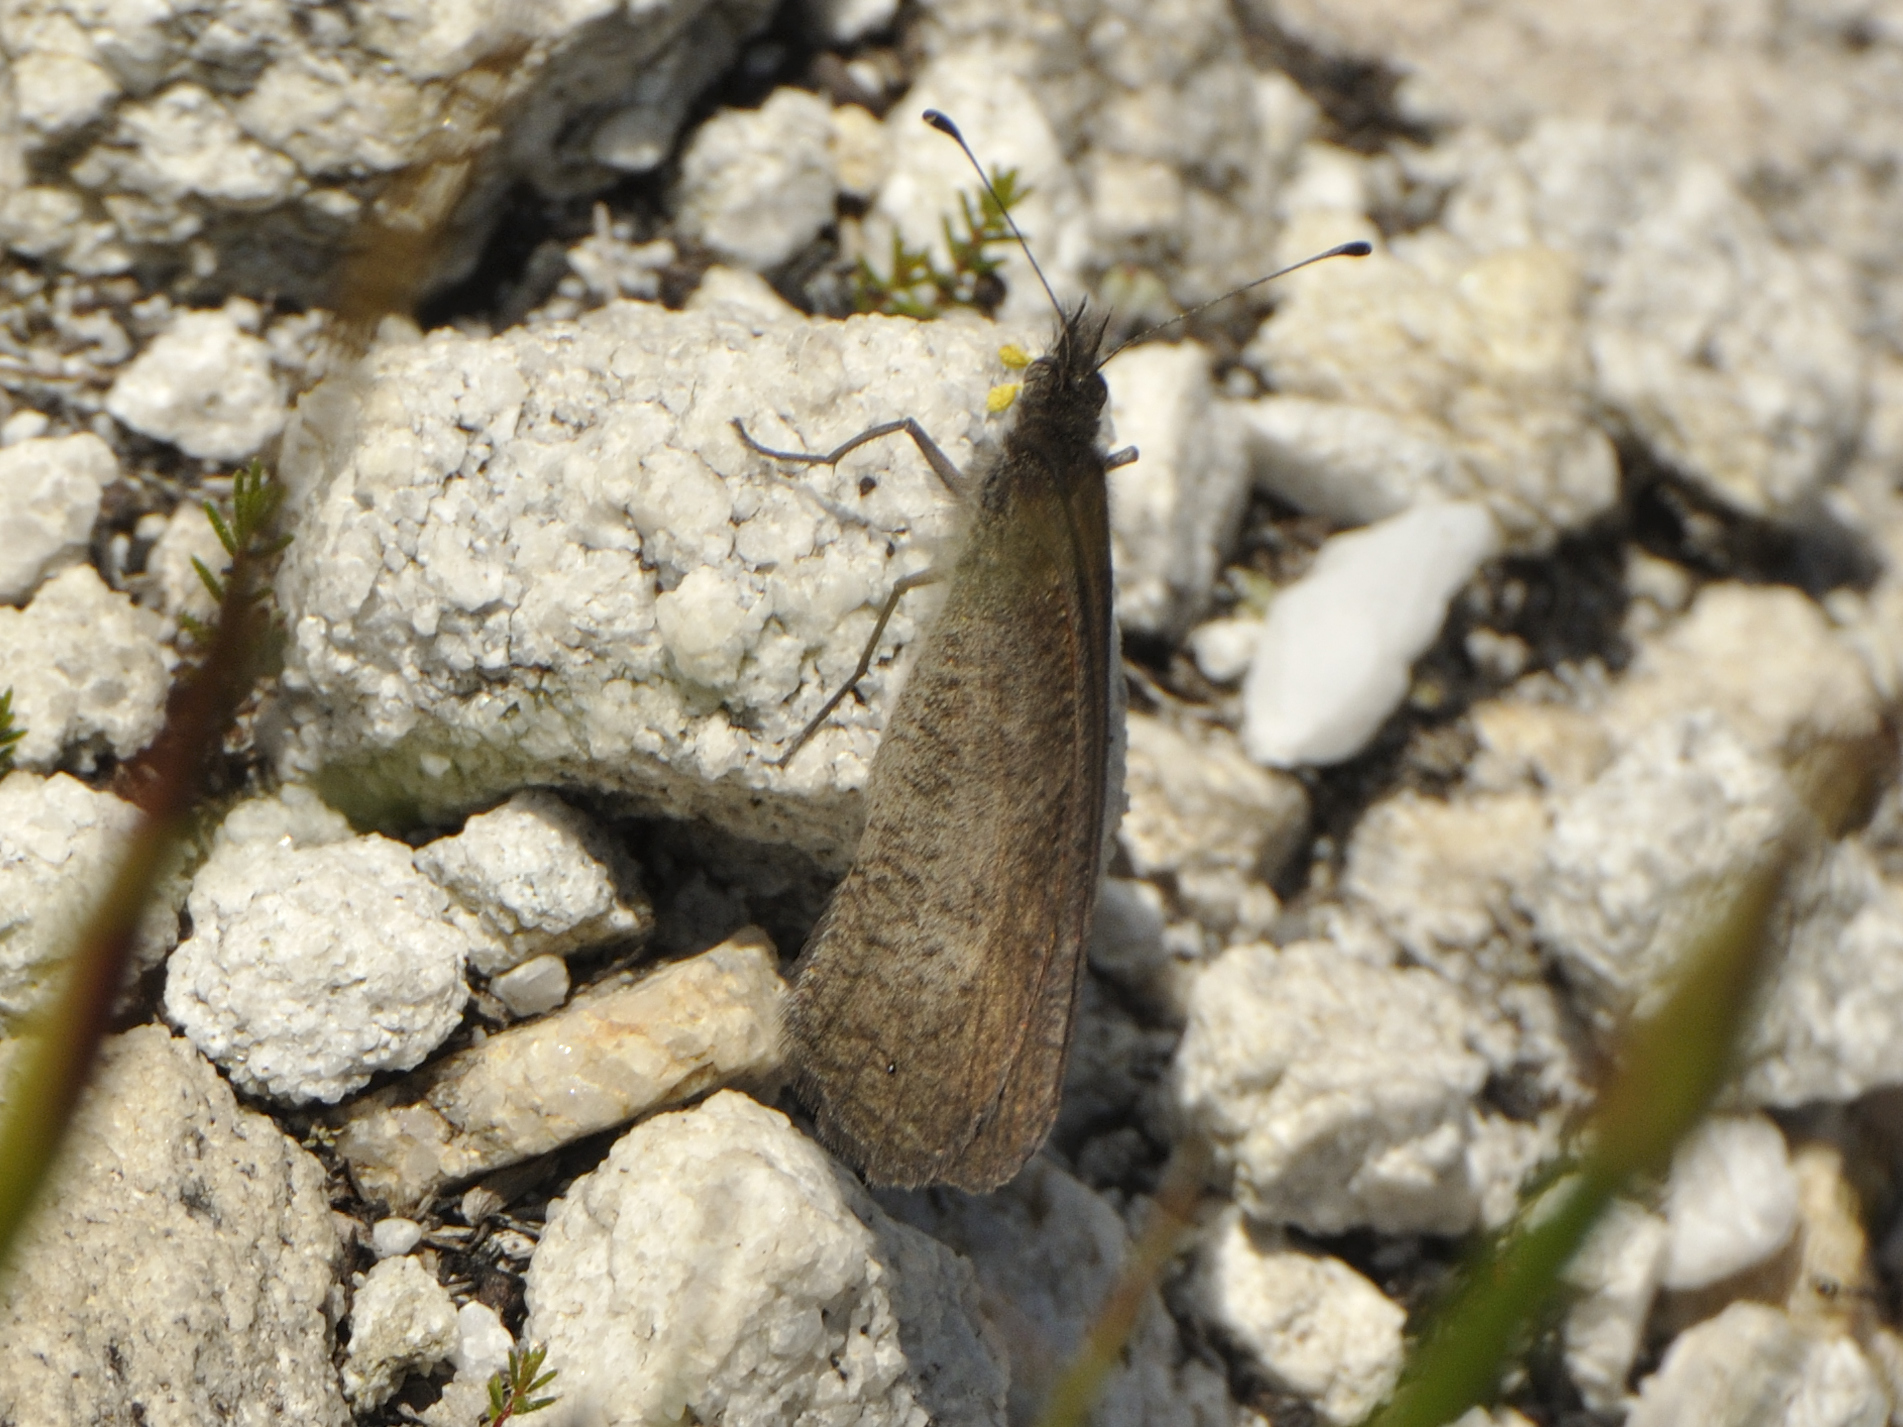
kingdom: Animalia
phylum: Arthropoda
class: Insecta
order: Lepidoptera
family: Nymphalidae
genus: Stygionympha
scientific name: Stygionympha vigilans
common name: Western hillside brown
